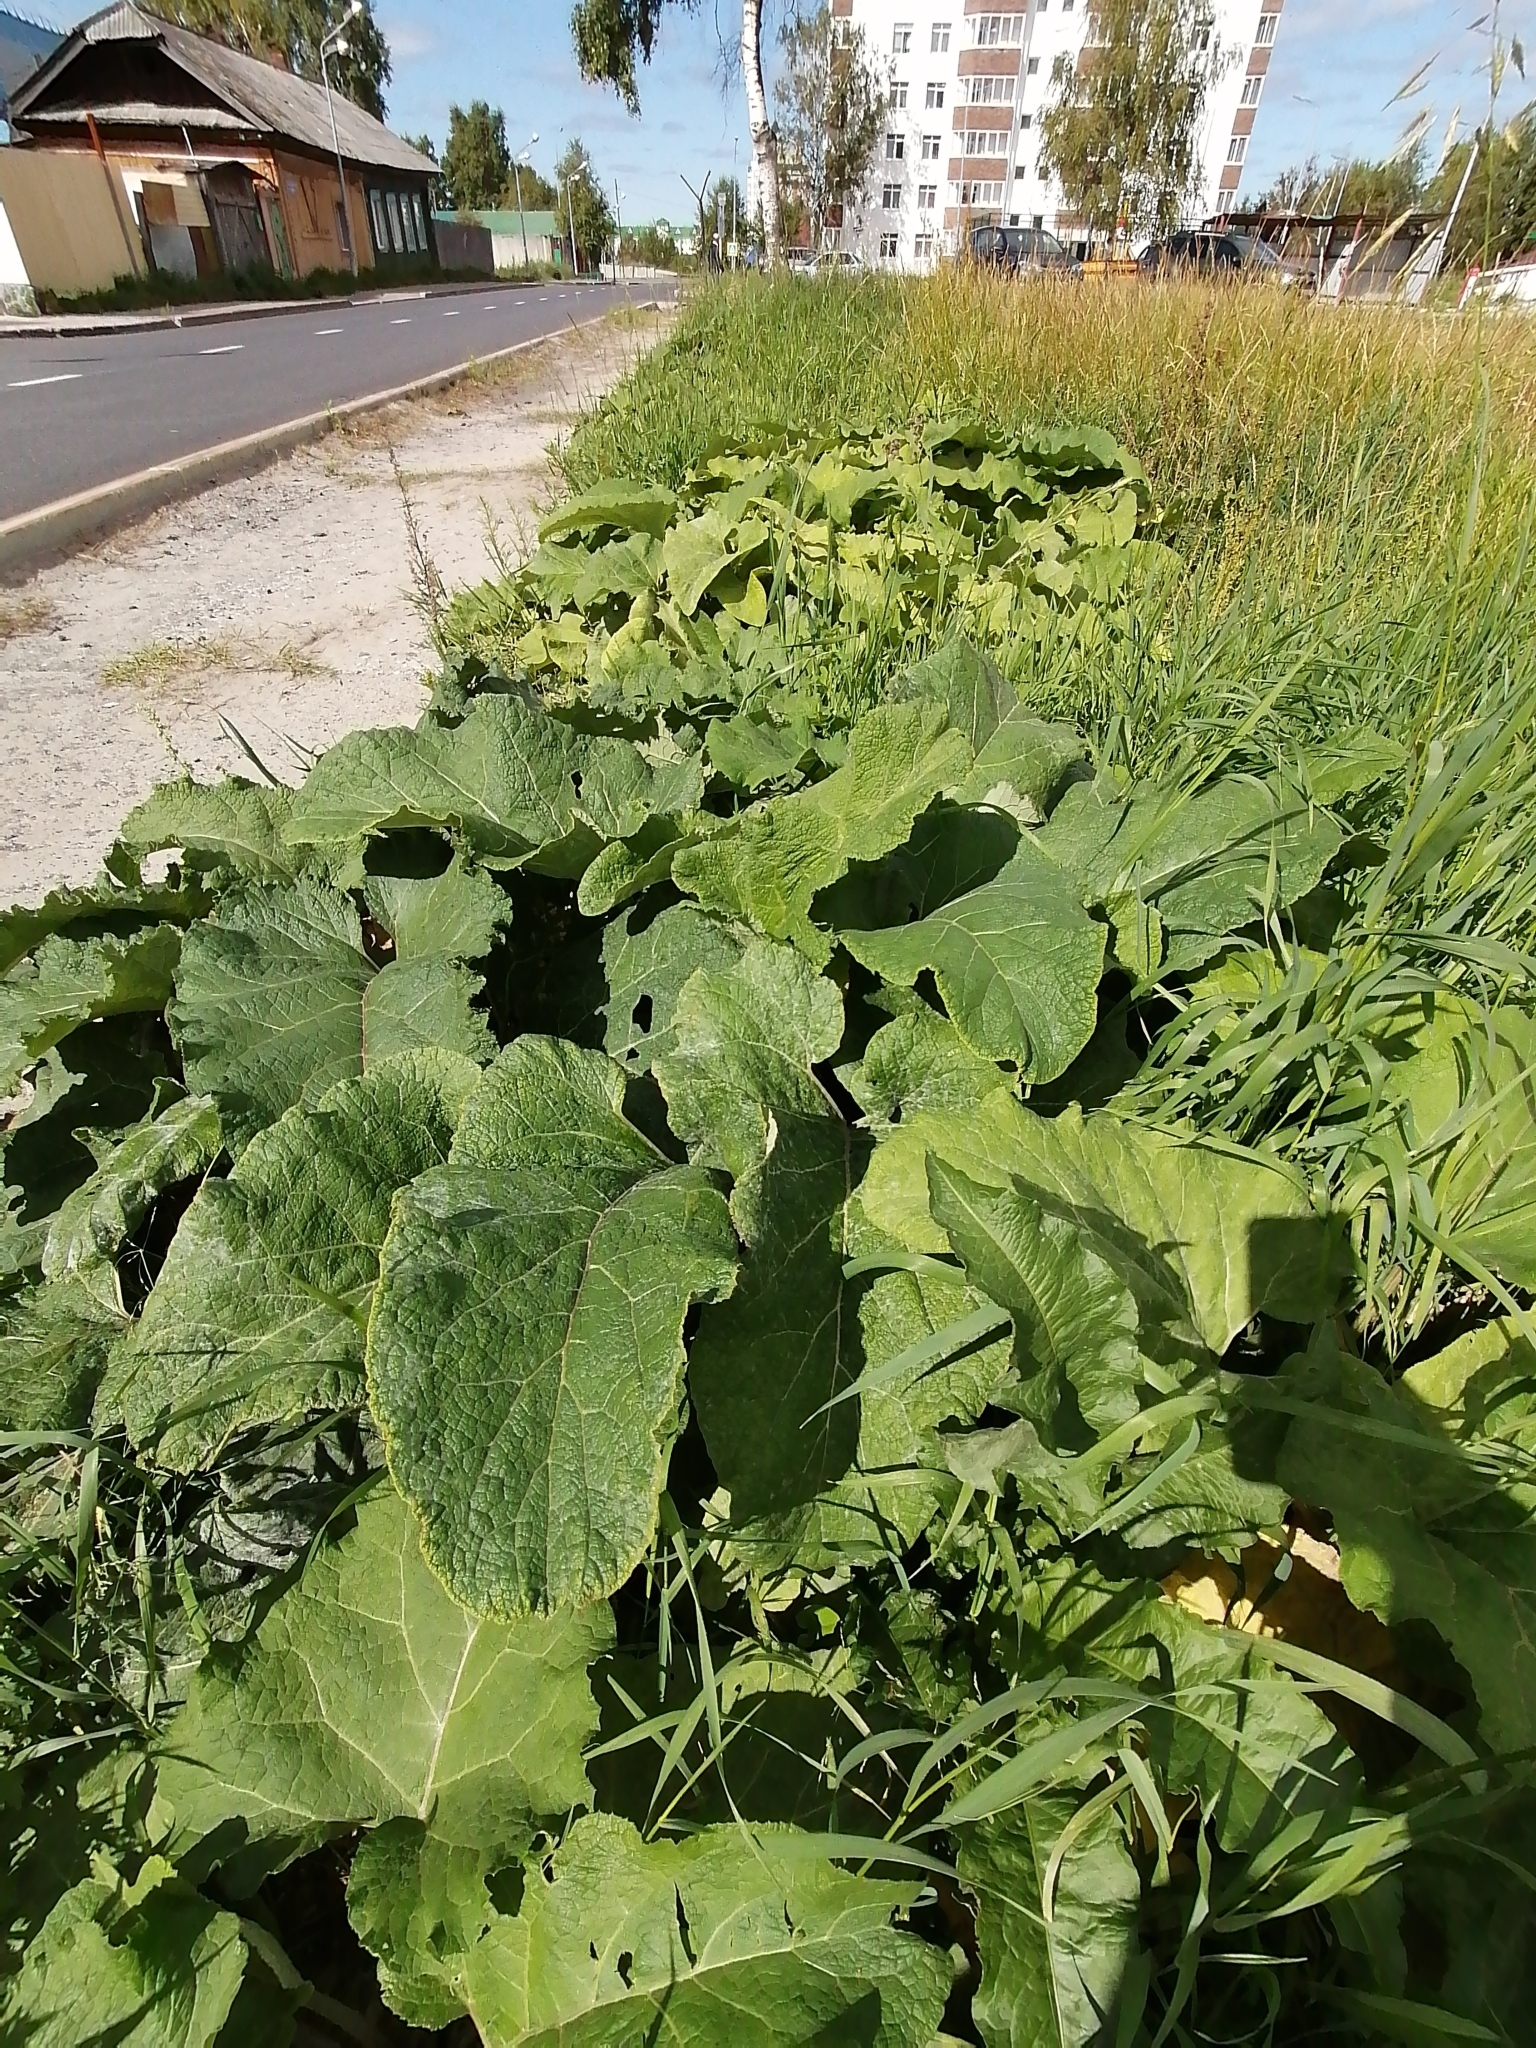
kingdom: Plantae
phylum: Tracheophyta
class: Magnoliopsida
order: Asterales
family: Asteraceae
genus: Arctium
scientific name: Arctium tomentosum
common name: Woolly burdock
